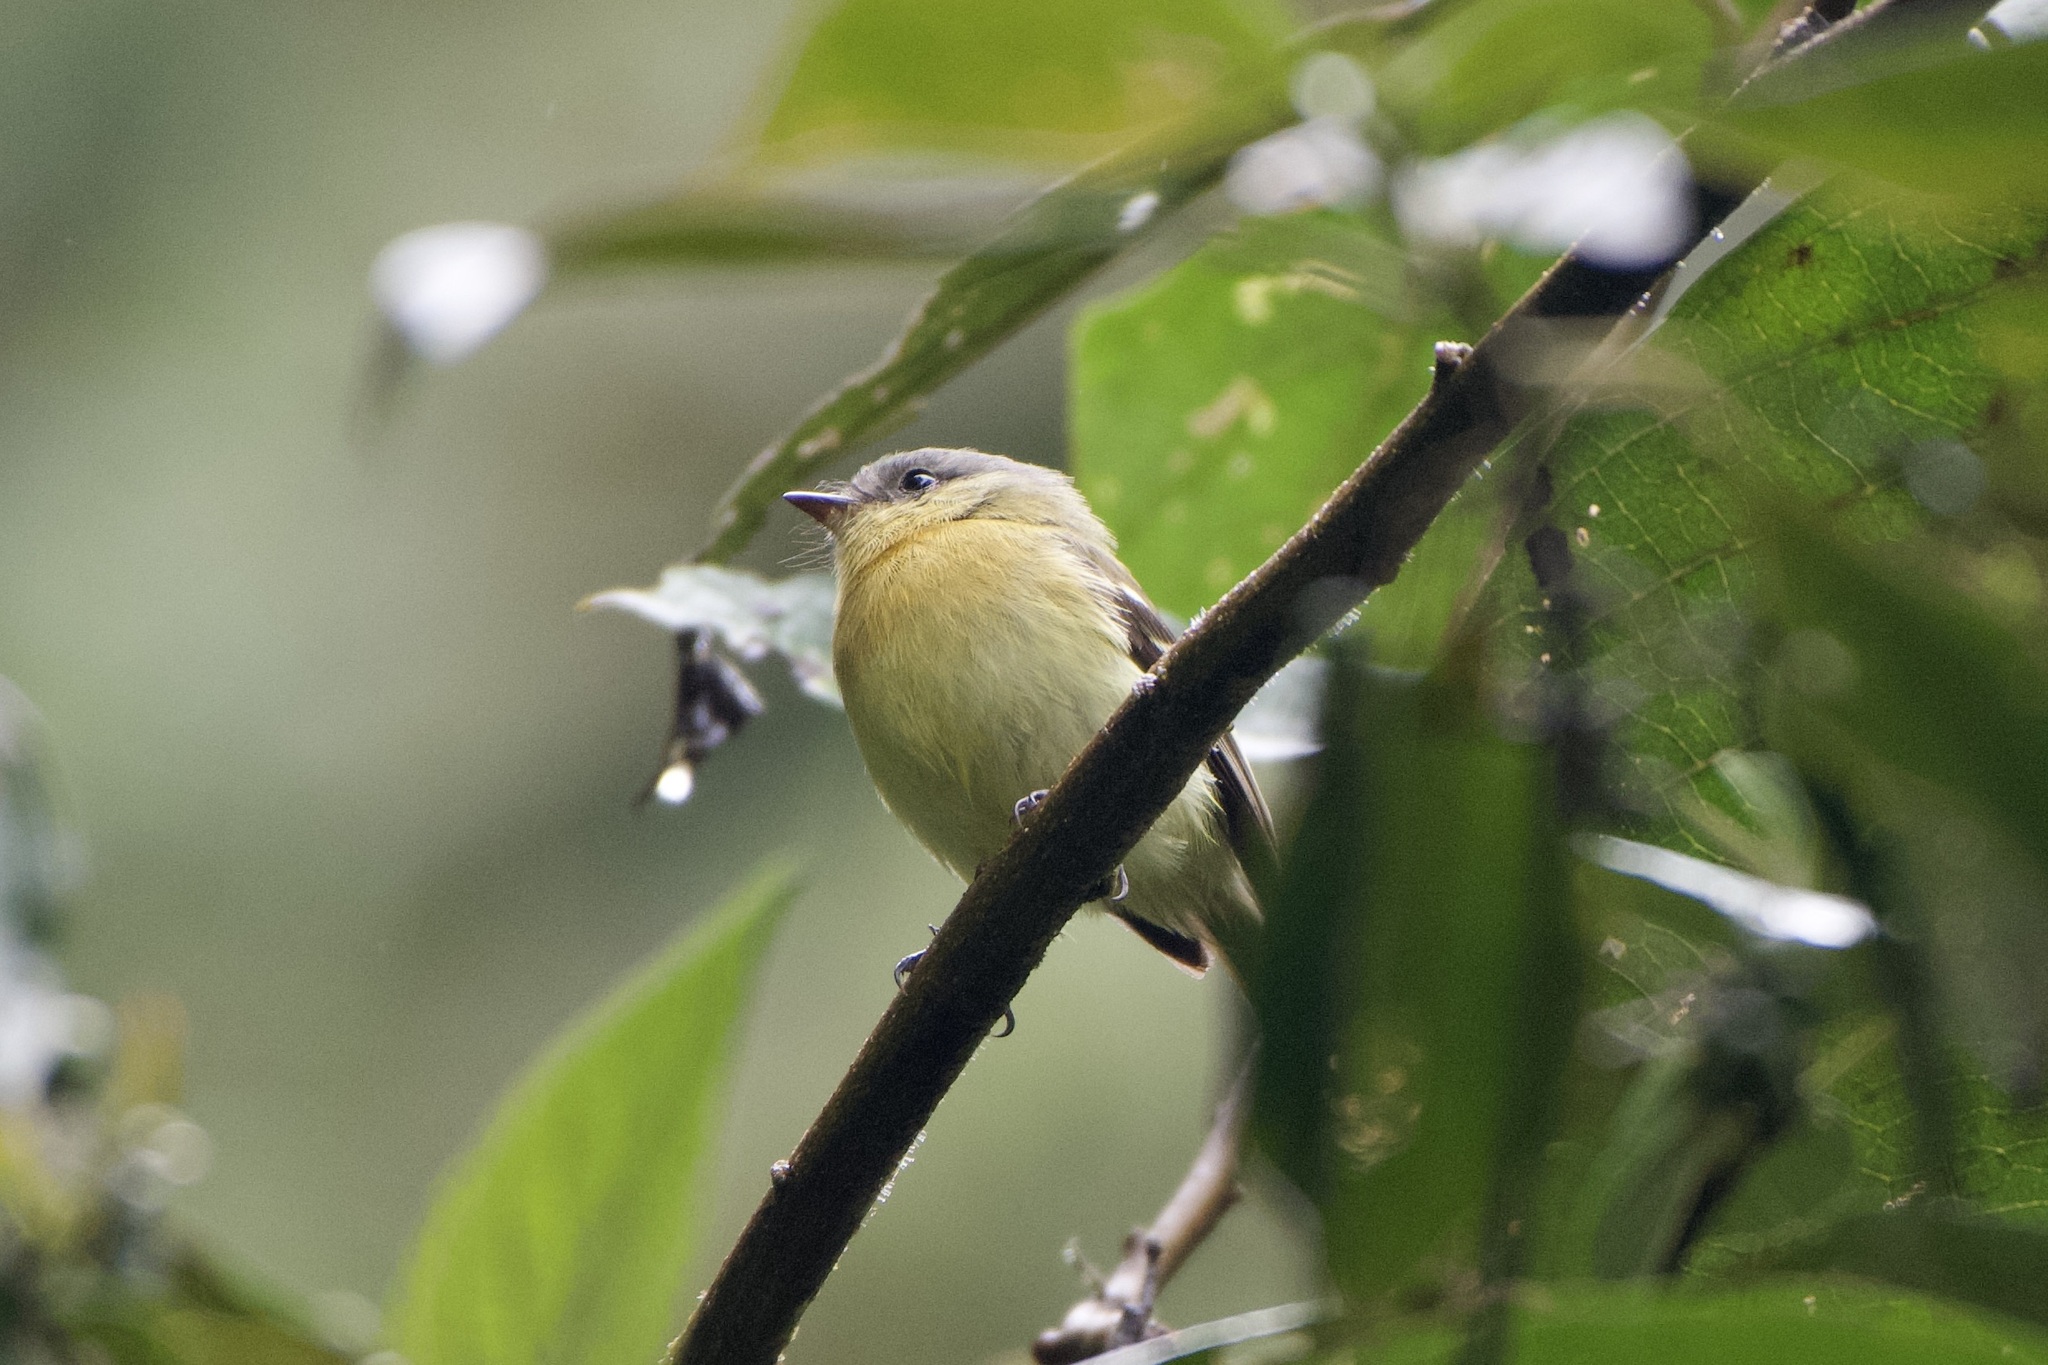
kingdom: Animalia
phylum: Chordata
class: Aves
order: Passeriformes
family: Tyrannidae
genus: Myiophobus
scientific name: Myiophobus pulcher
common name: Handsome flycatcher
